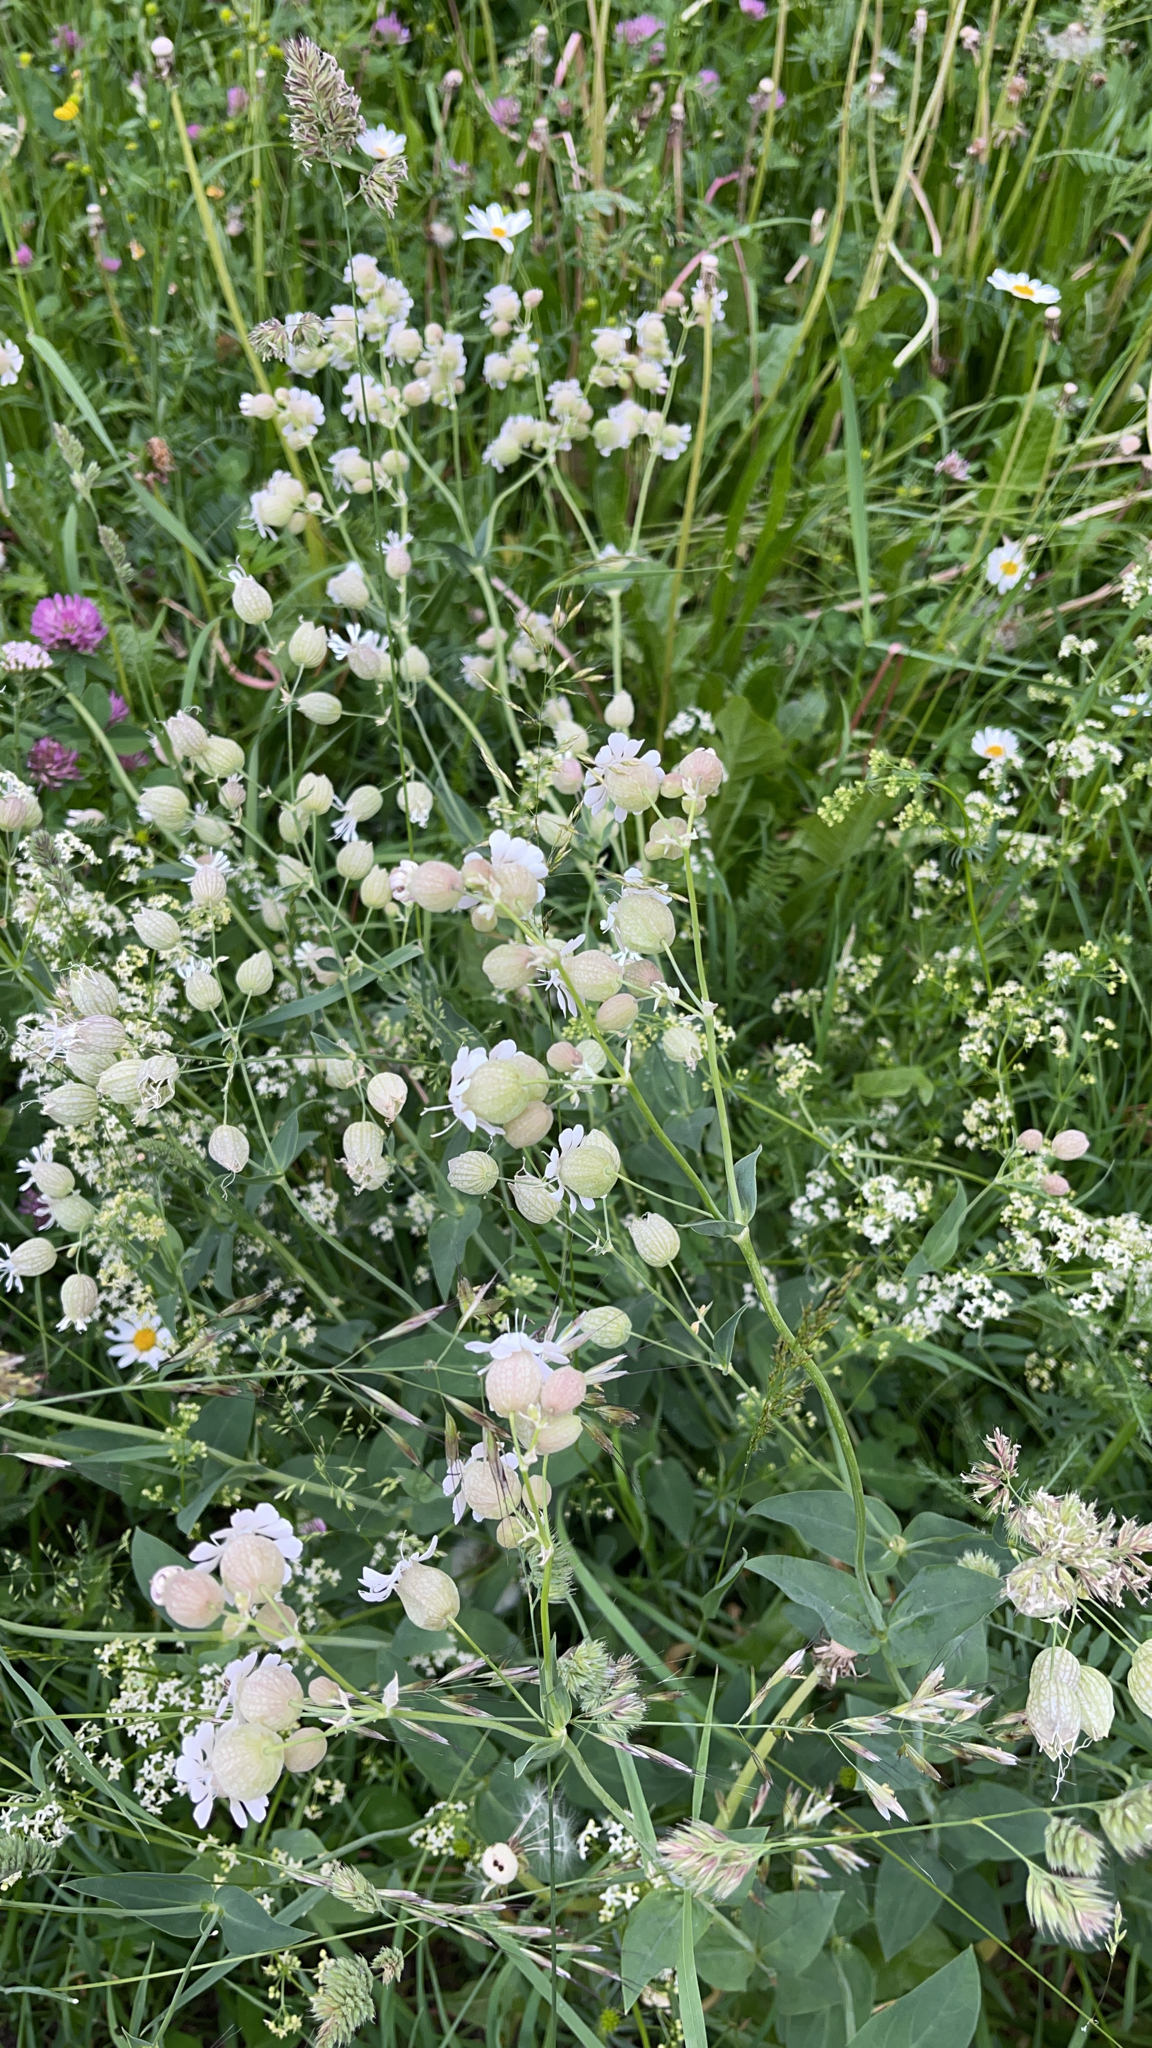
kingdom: Plantae
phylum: Tracheophyta
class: Magnoliopsida
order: Caryophyllales
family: Caryophyllaceae
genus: Silene
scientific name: Silene vulgaris
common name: Bladder campion
